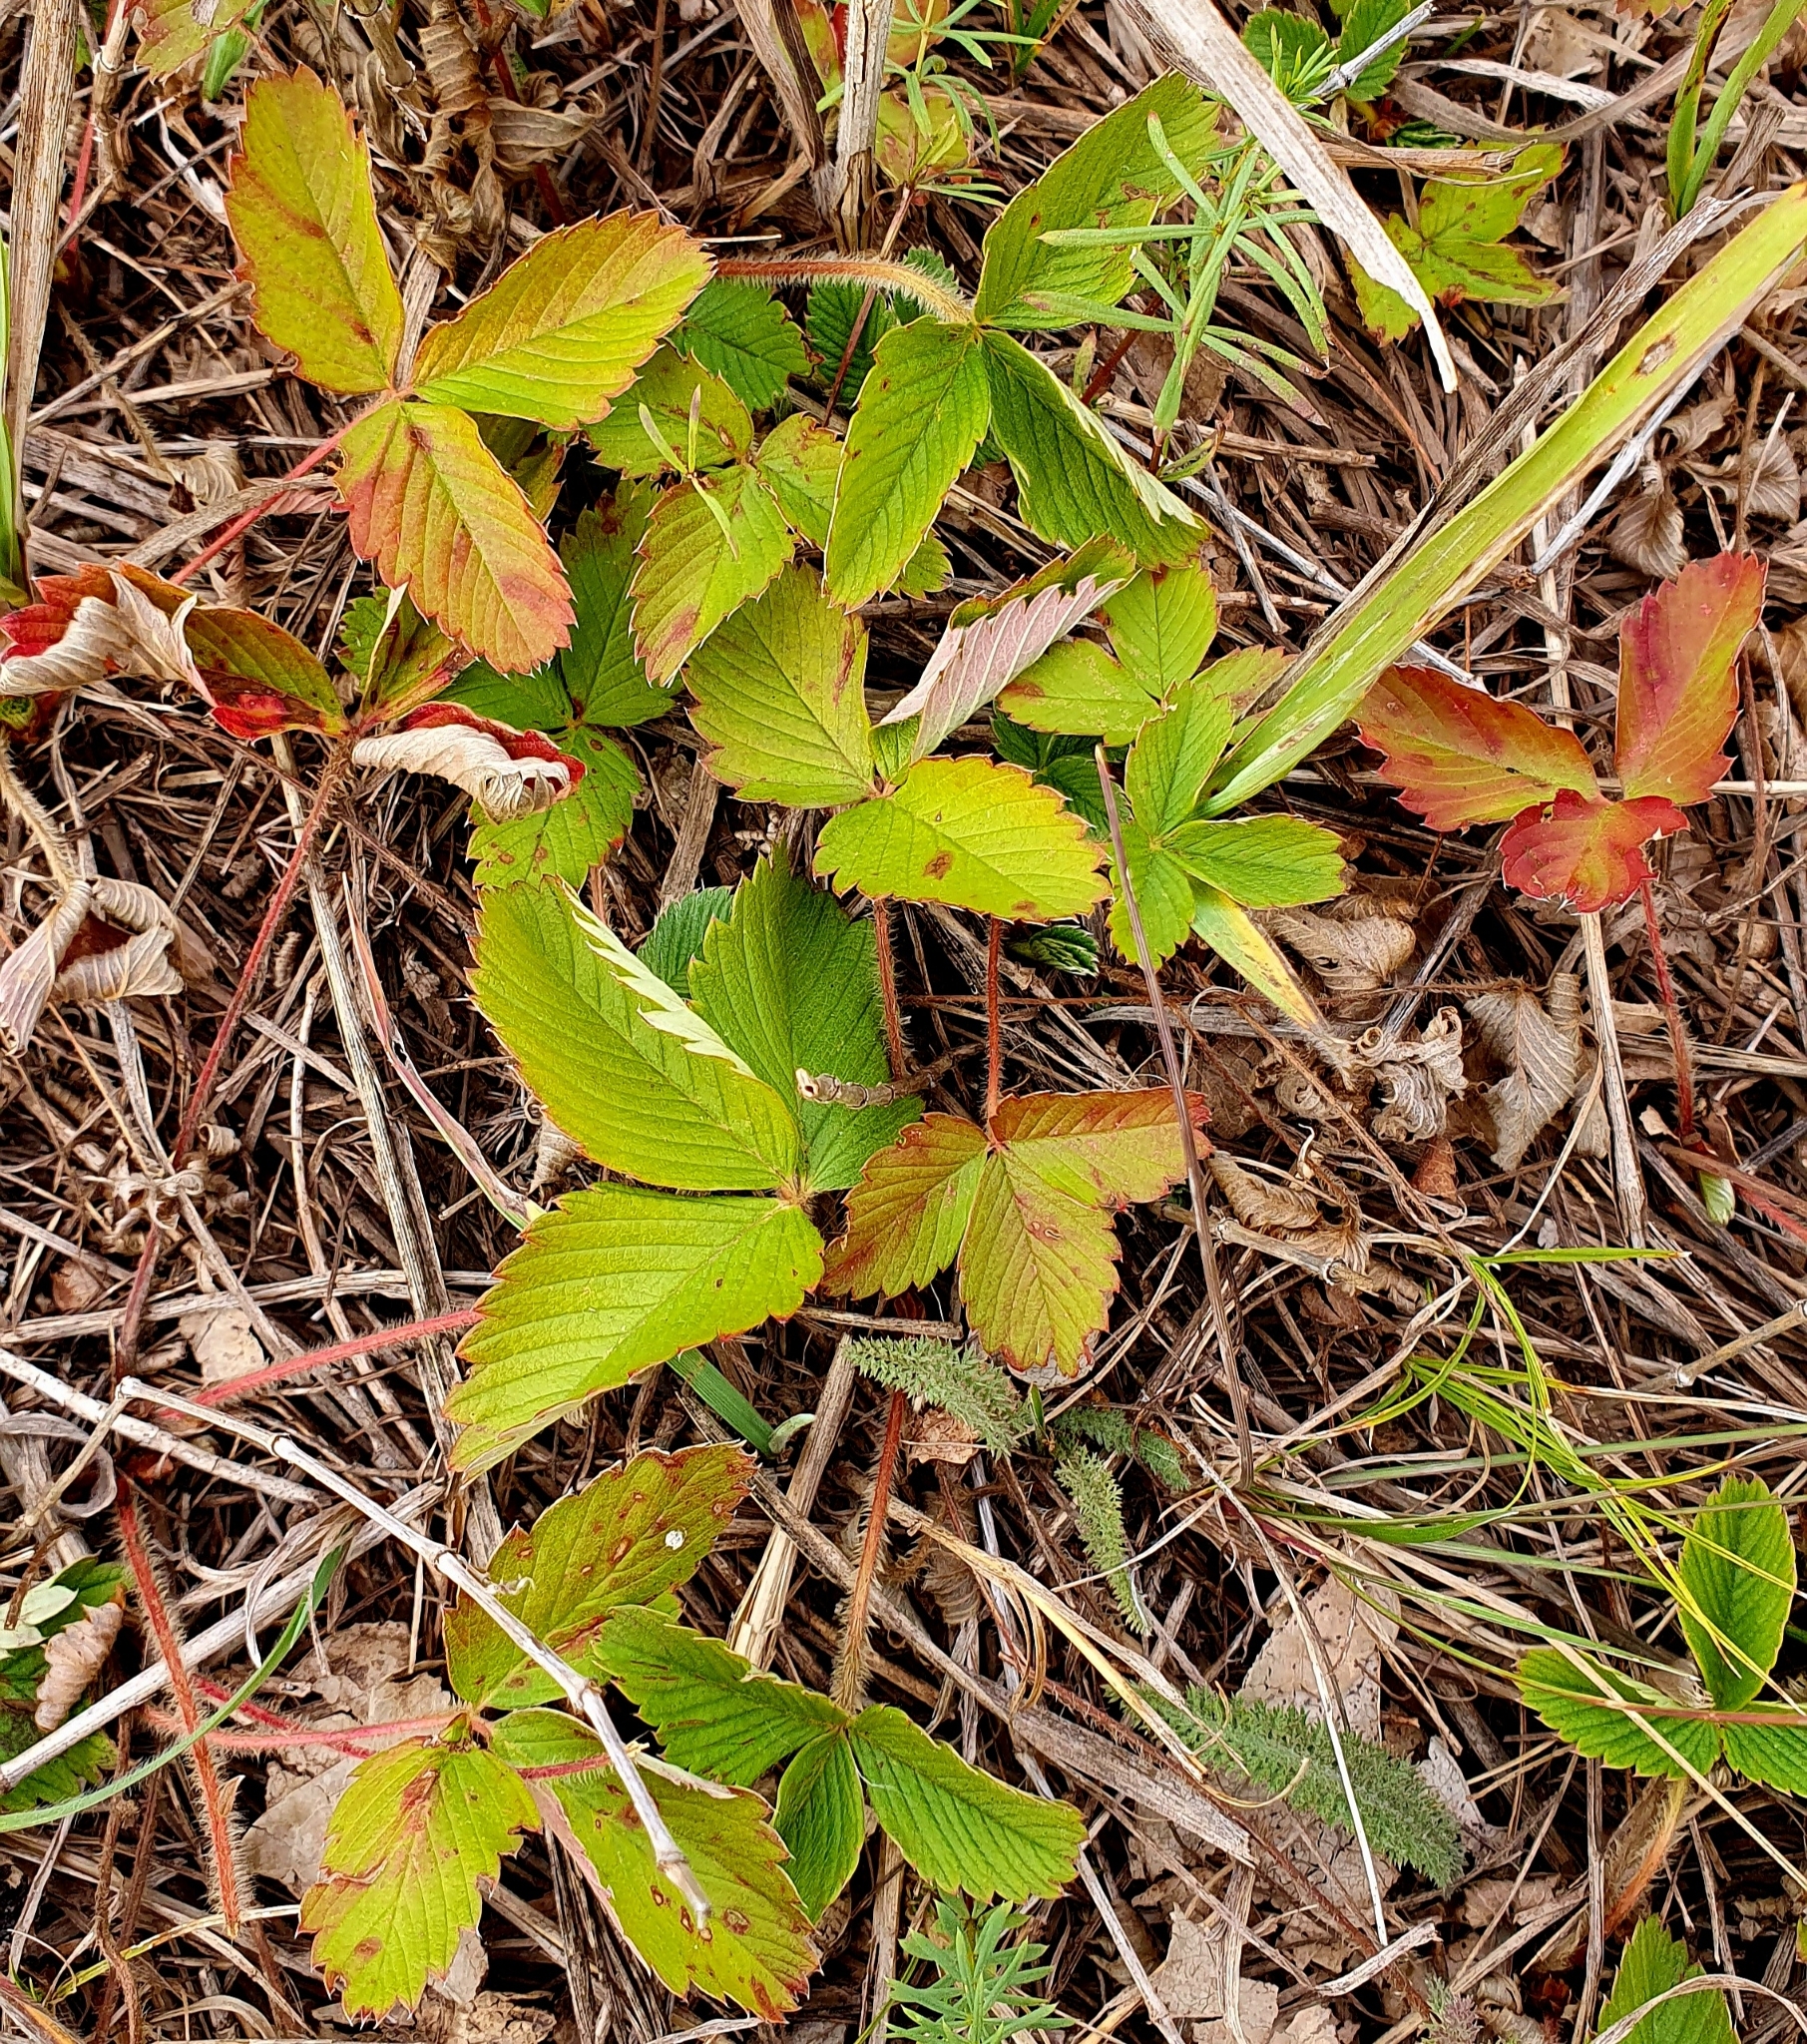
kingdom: Plantae
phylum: Tracheophyta
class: Magnoliopsida
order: Rosales
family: Rosaceae
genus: Fragaria
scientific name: Fragaria viridis
